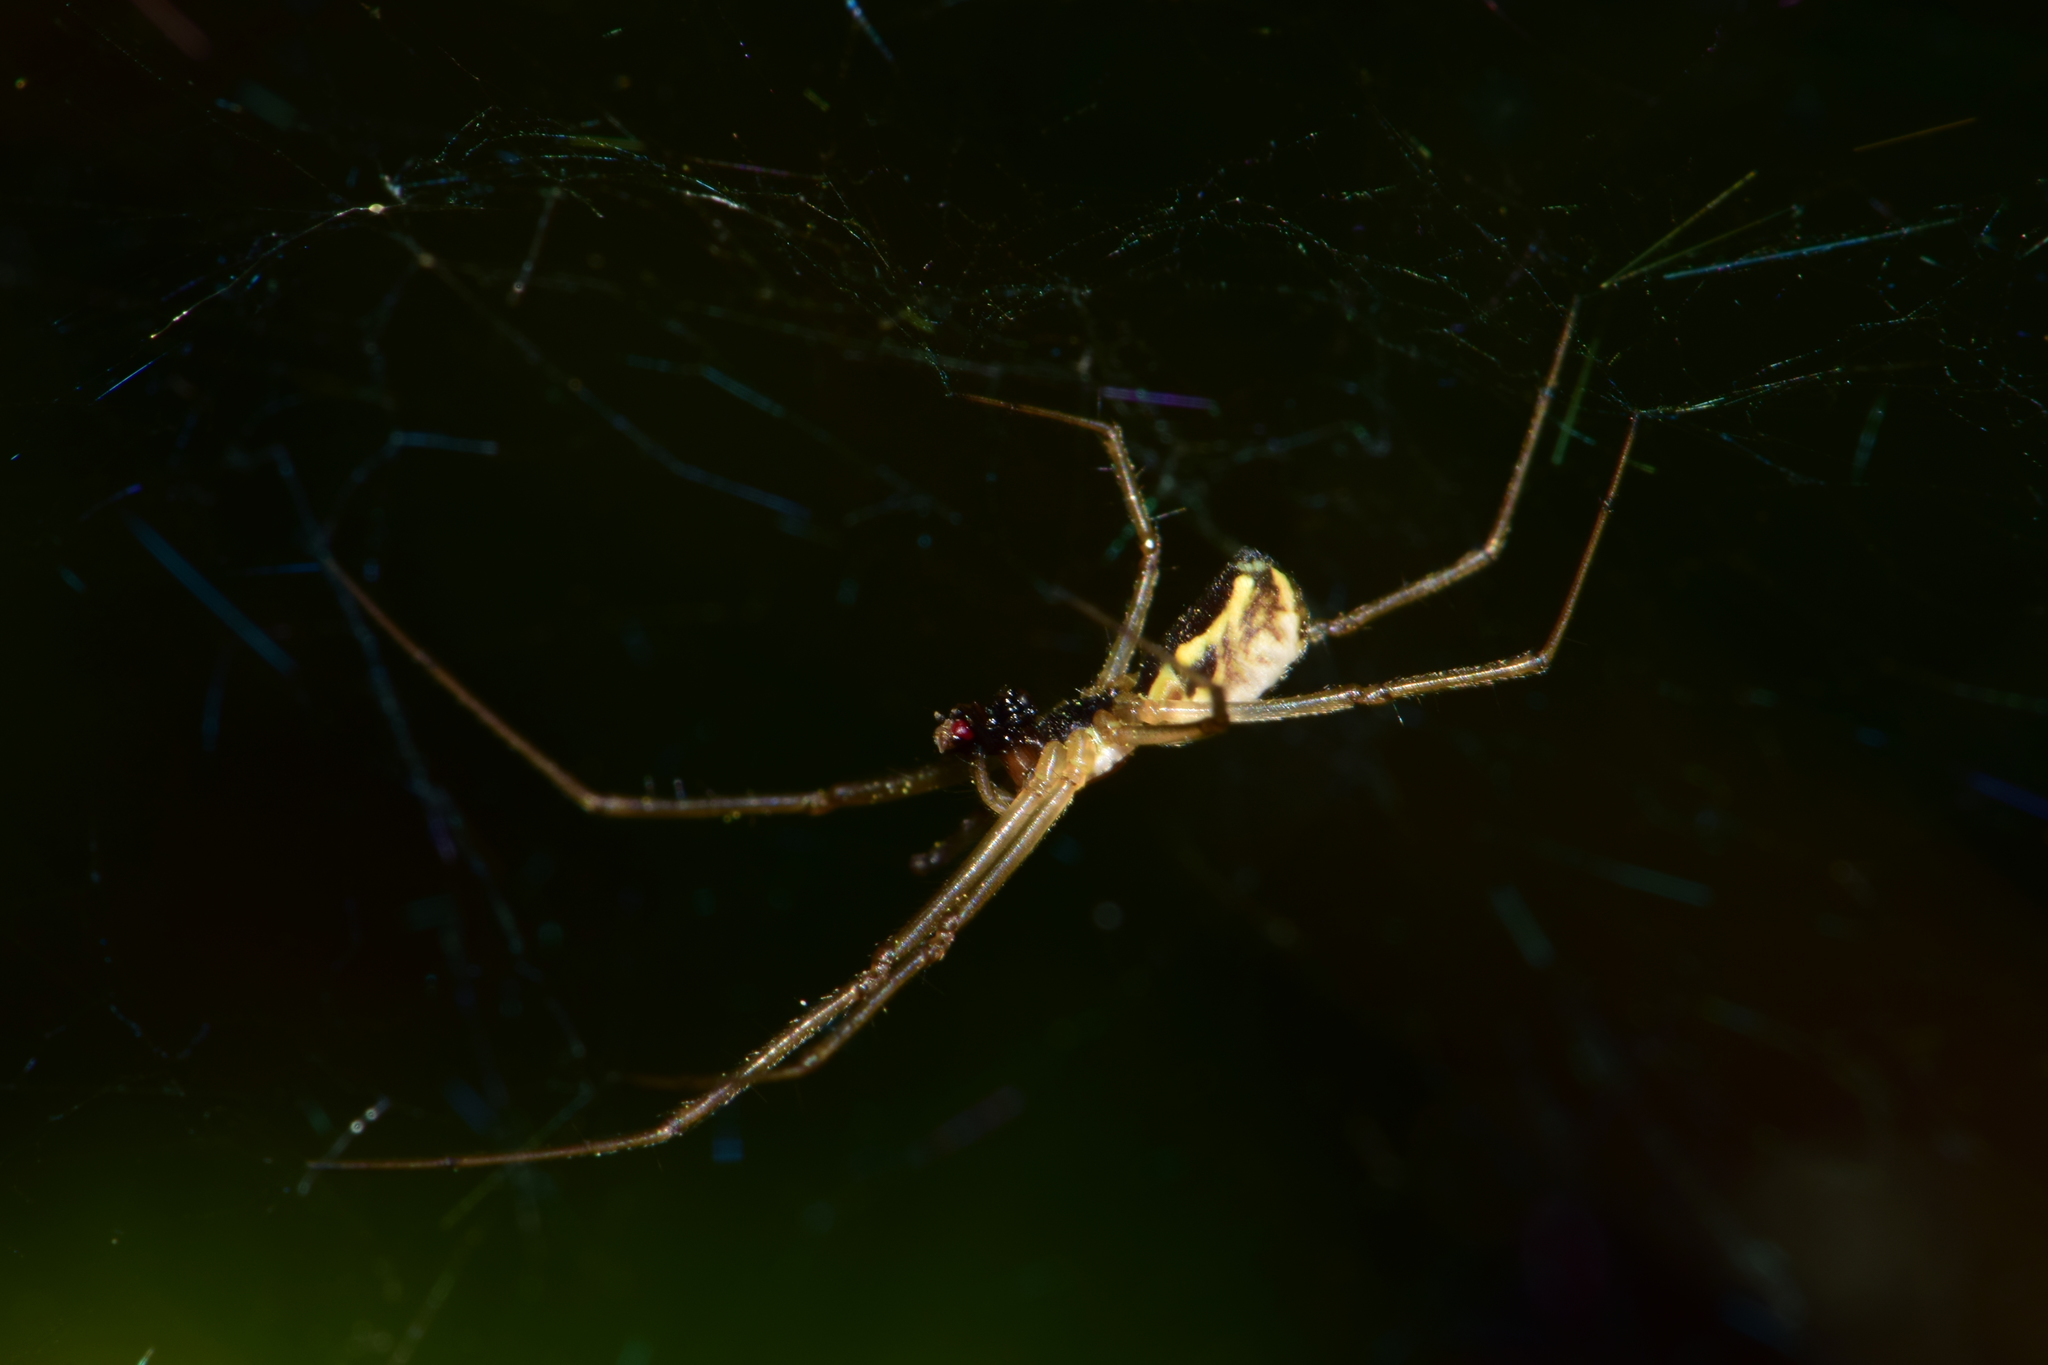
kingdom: Animalia
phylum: Arthropoda
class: Arachnida
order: Araneae
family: Linyphiidae
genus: Neriene
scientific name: Neriene radiata
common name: Filmy dome spider
